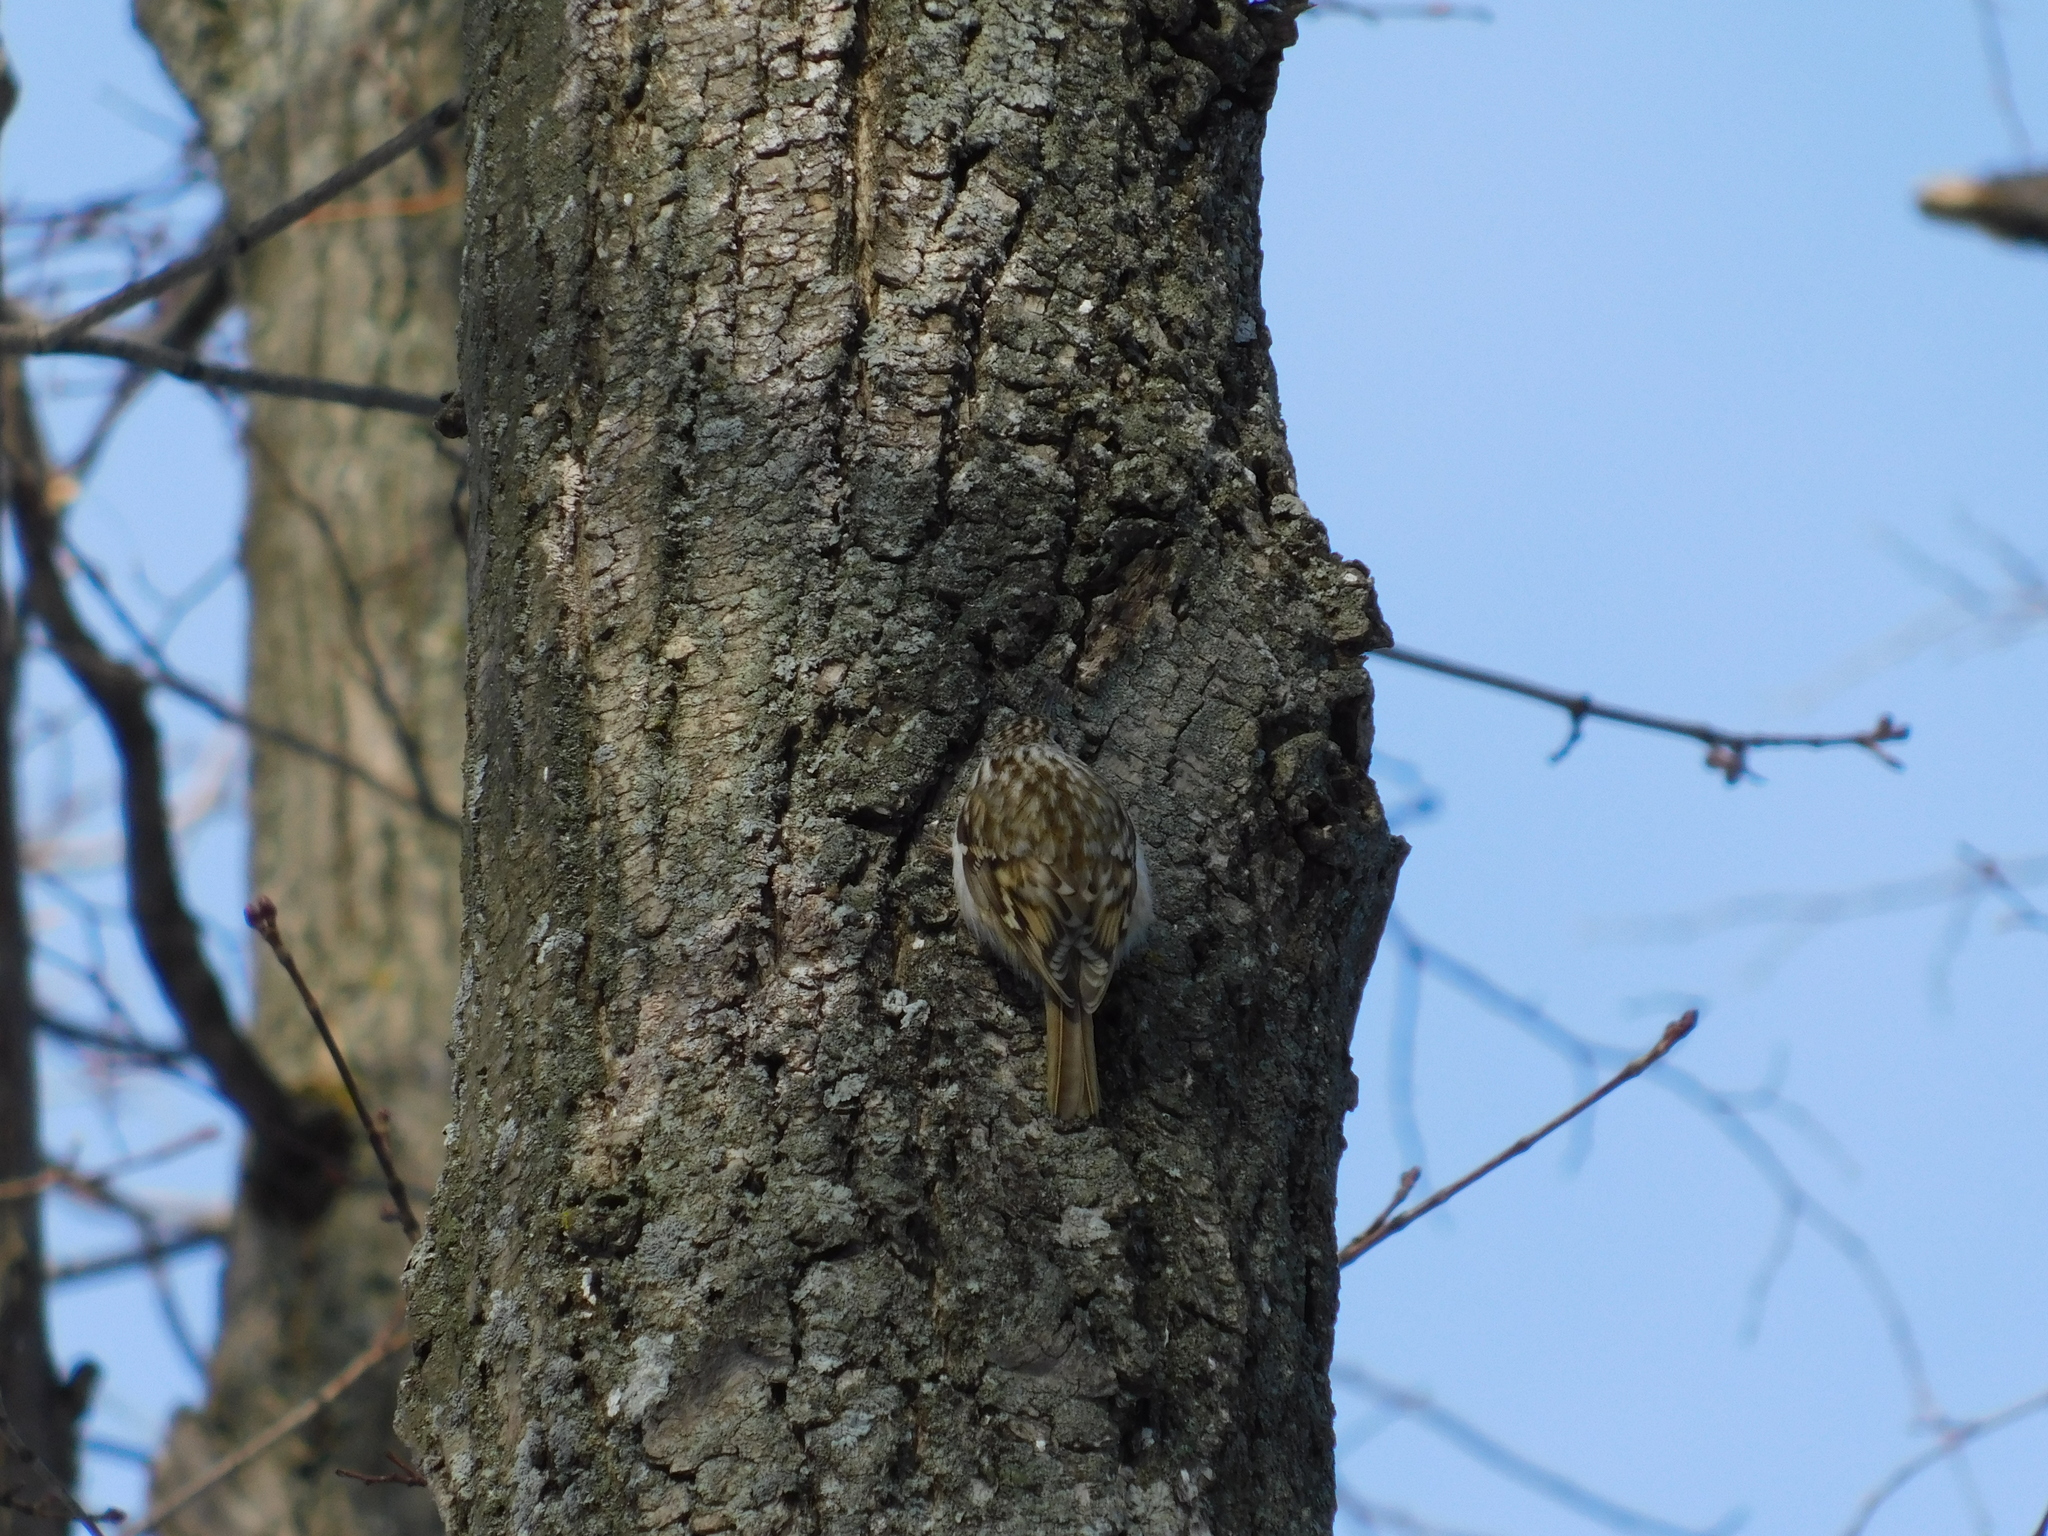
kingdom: Animalia
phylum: Chordata
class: Aves
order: Passeriformes
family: Certhiidae
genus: Certhia
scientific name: Certhia familiaris
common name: Eurasian treecreeper
